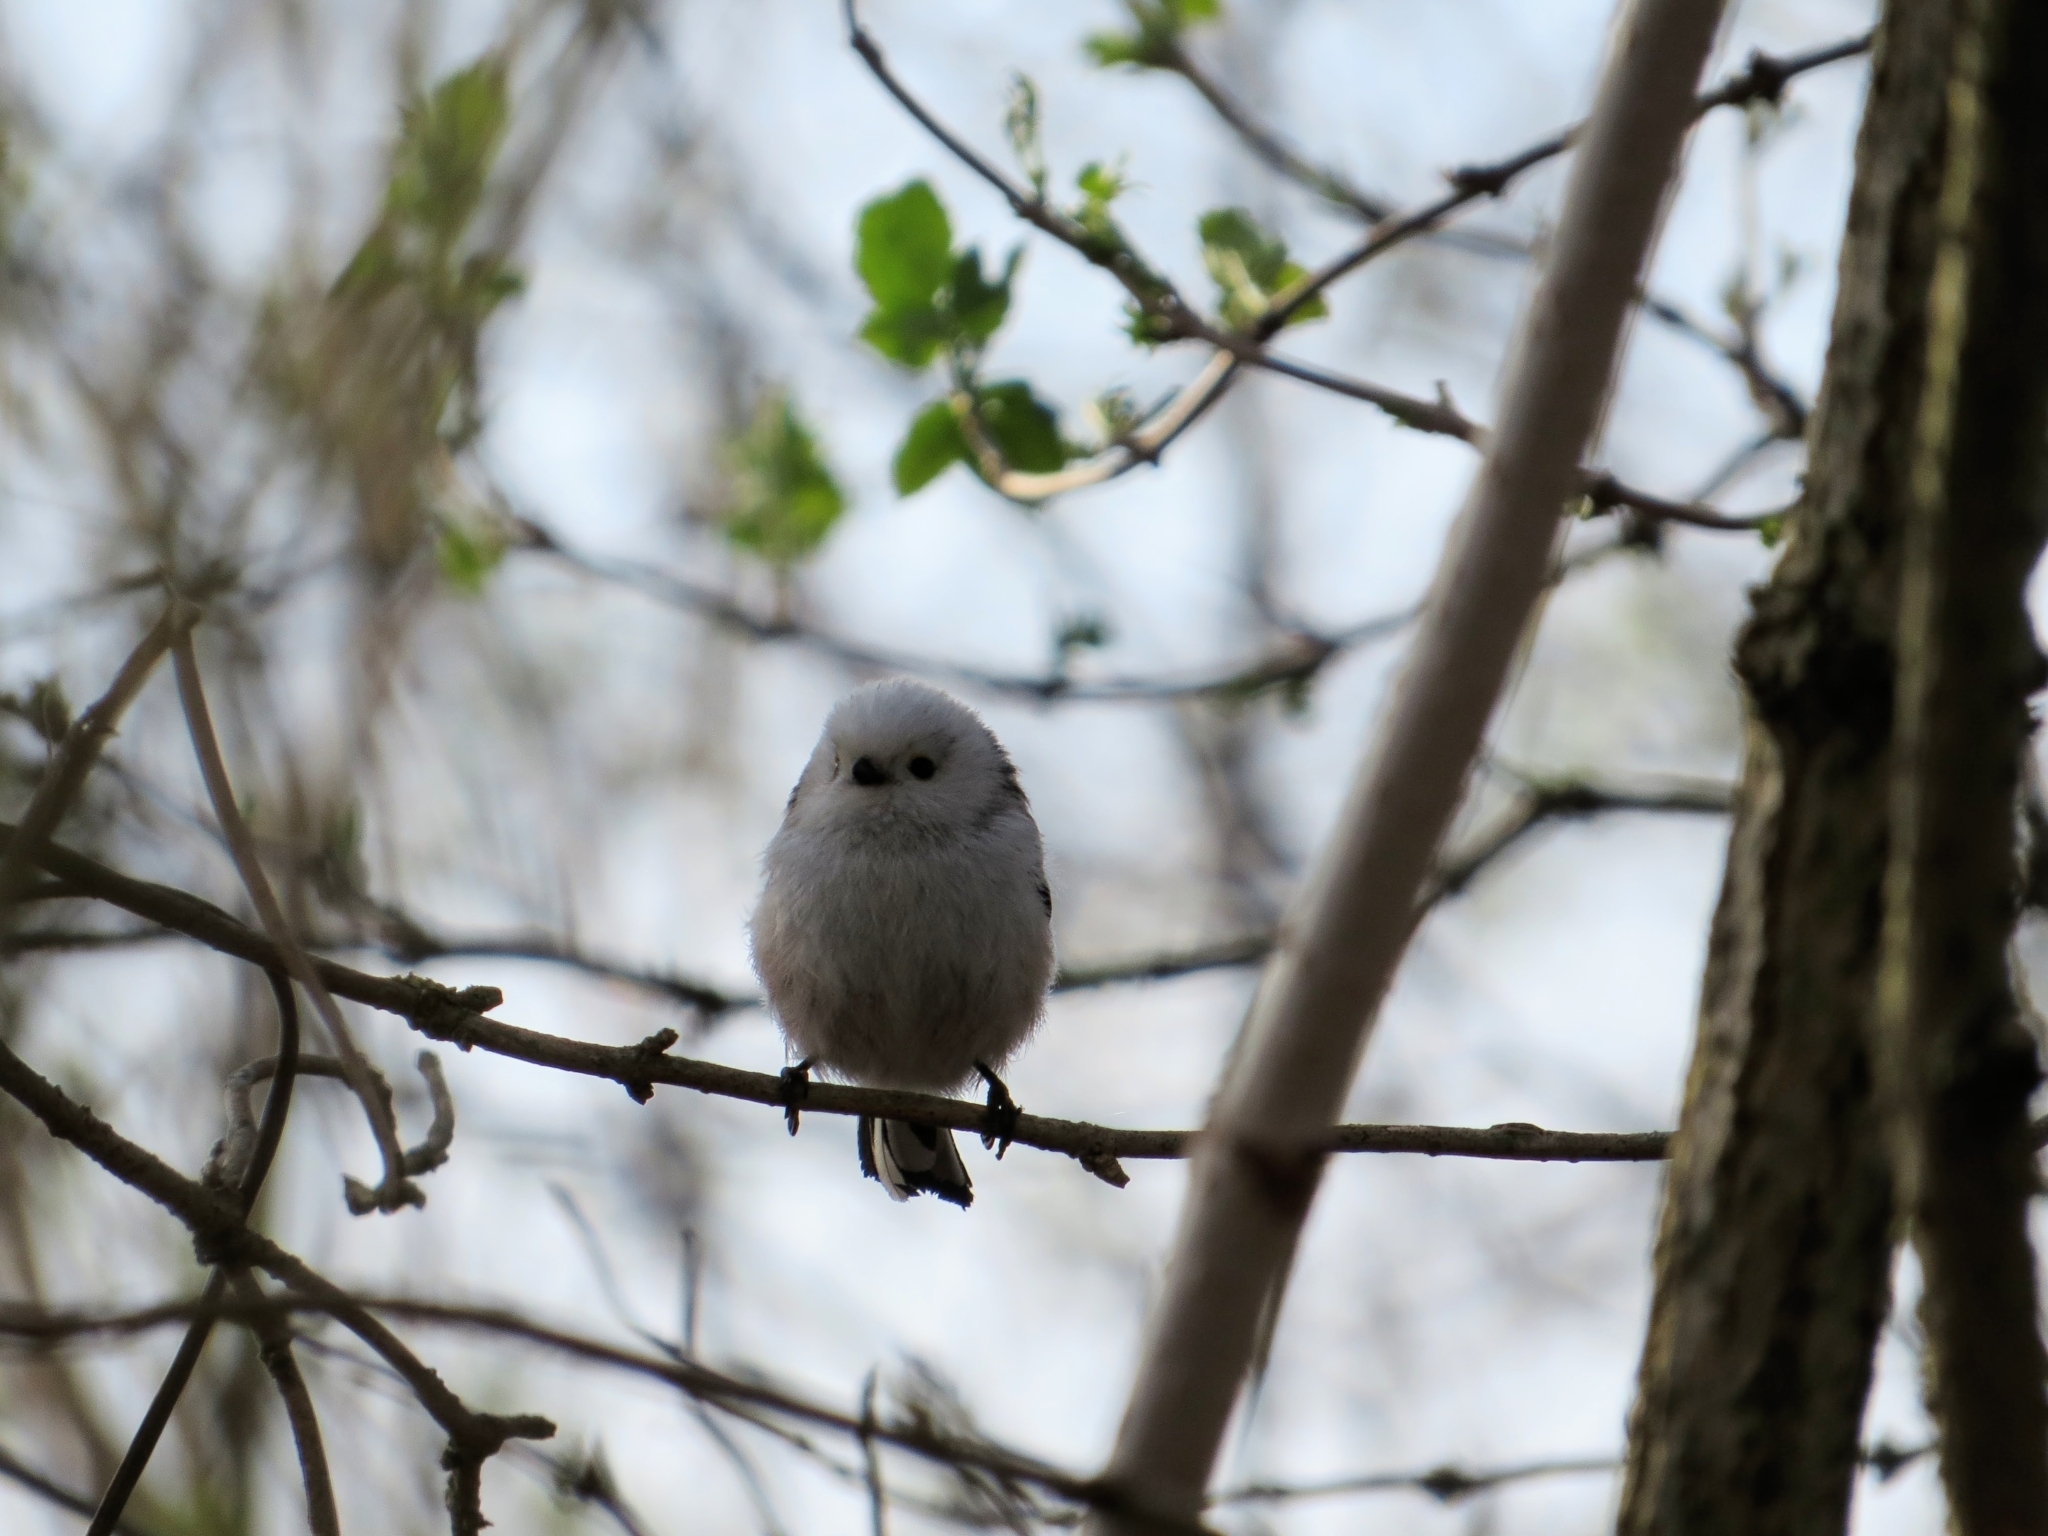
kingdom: Animalia
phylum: Chordata
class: Aves
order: Passeriformes
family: Aegithalidae
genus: Aegithalos
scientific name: Aegithalos caudatus
